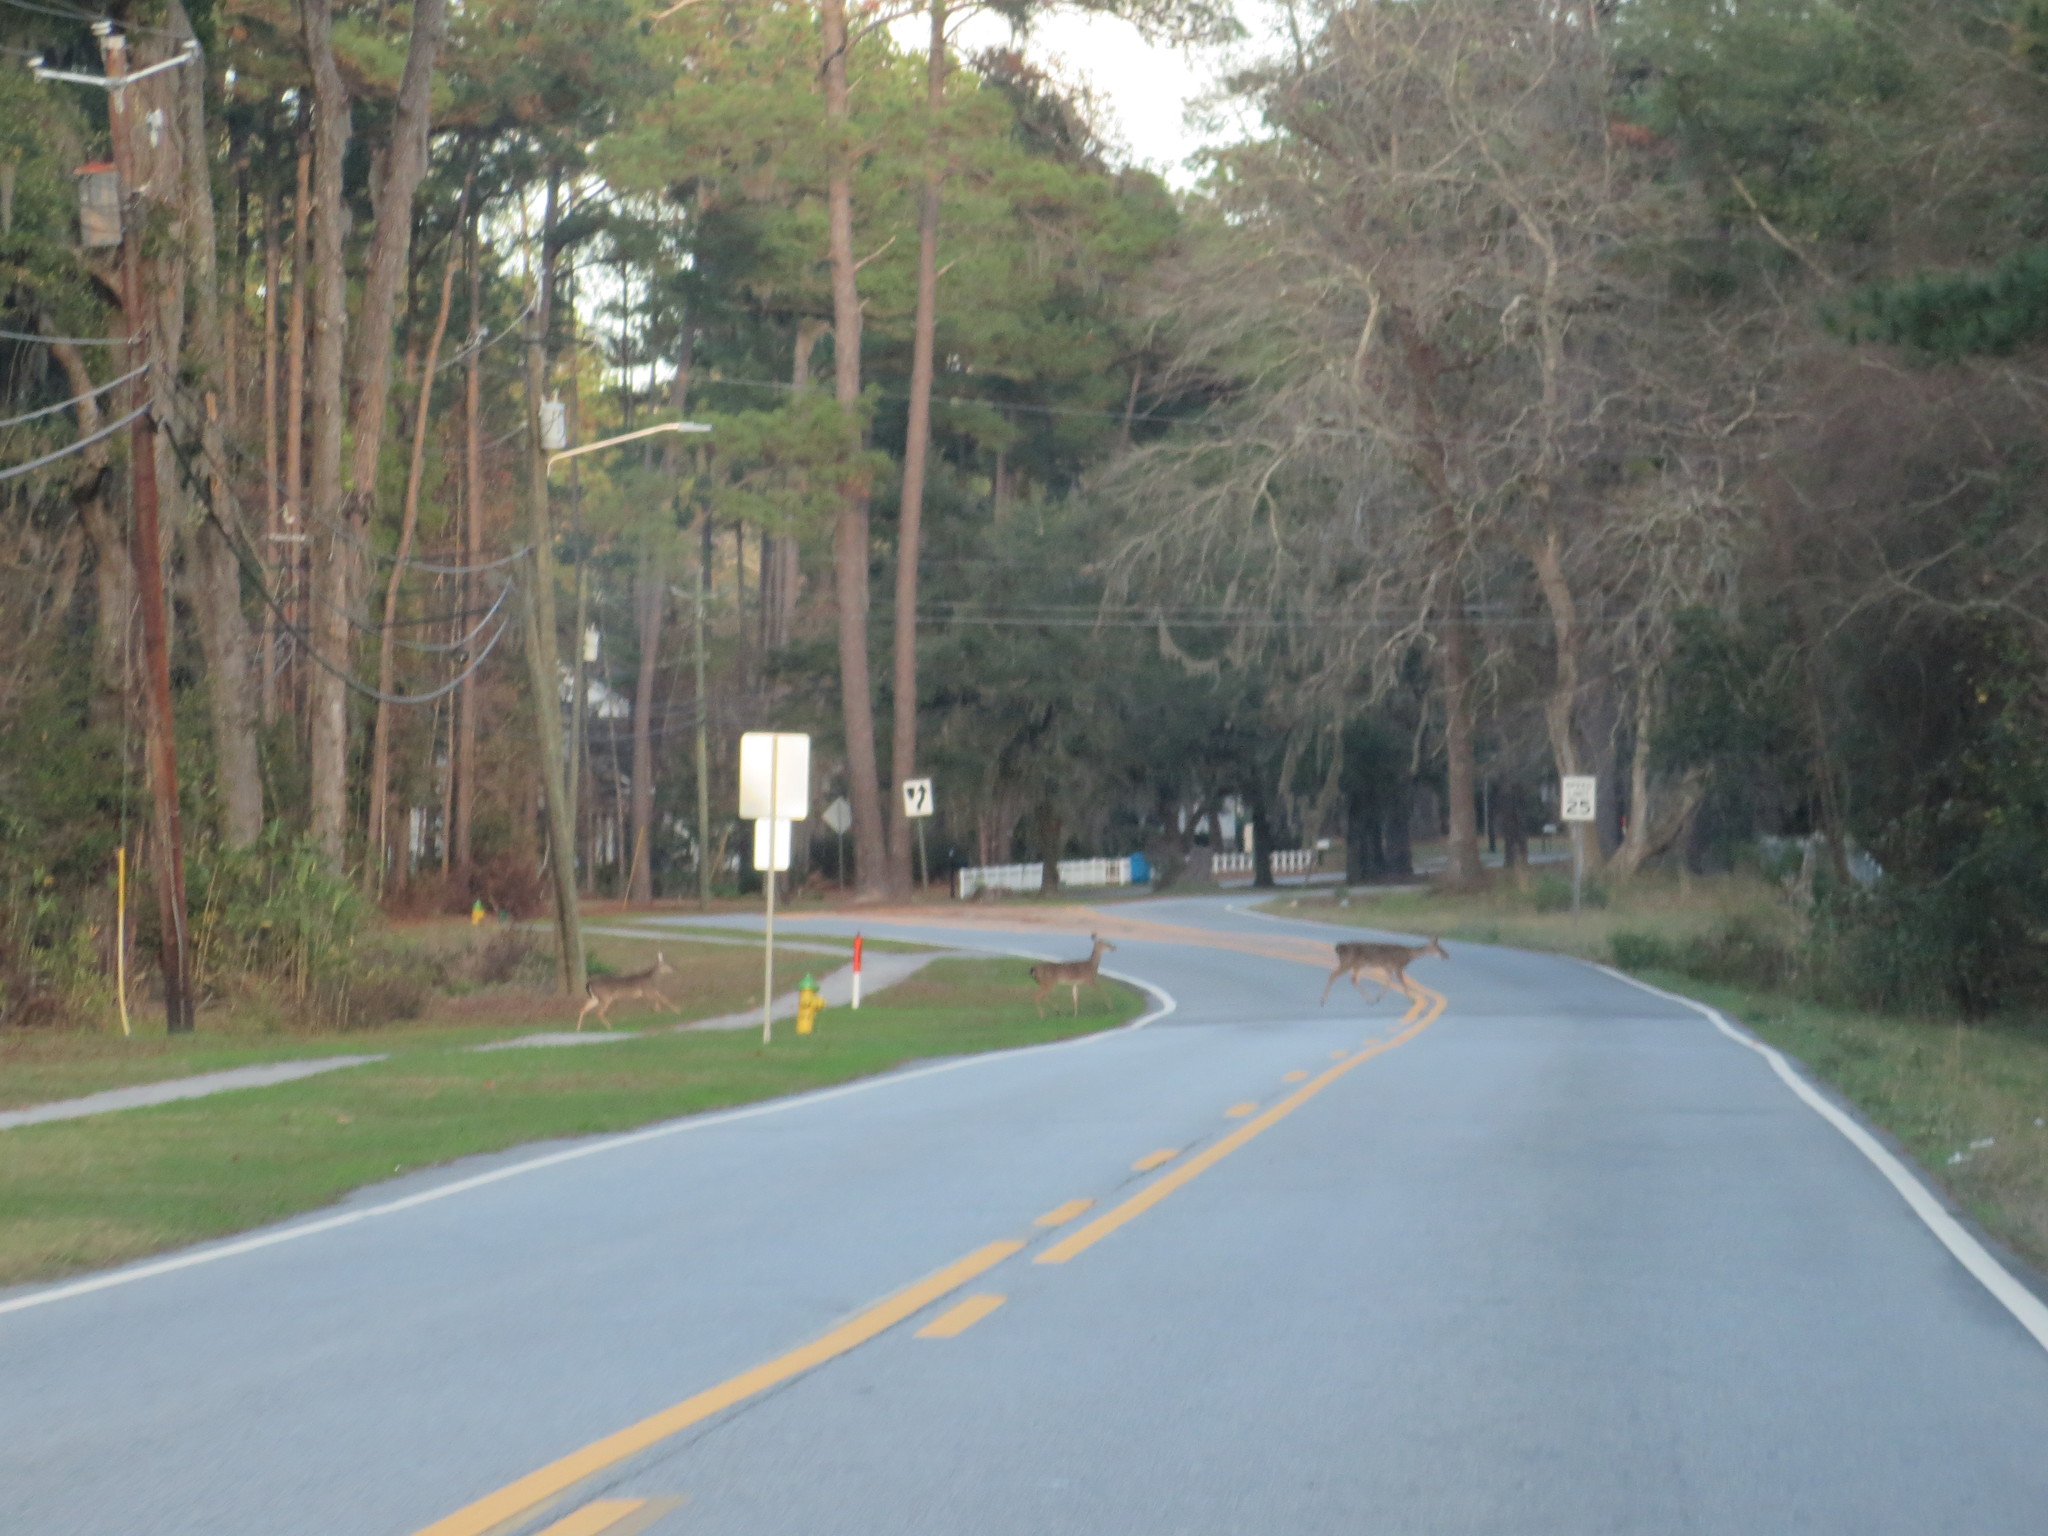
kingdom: Animalia
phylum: Chordata
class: Mammalia
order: Artiodactyla
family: Cervidae
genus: Odocoileus
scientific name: Odocoileus virginianus
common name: White-tailed deer
